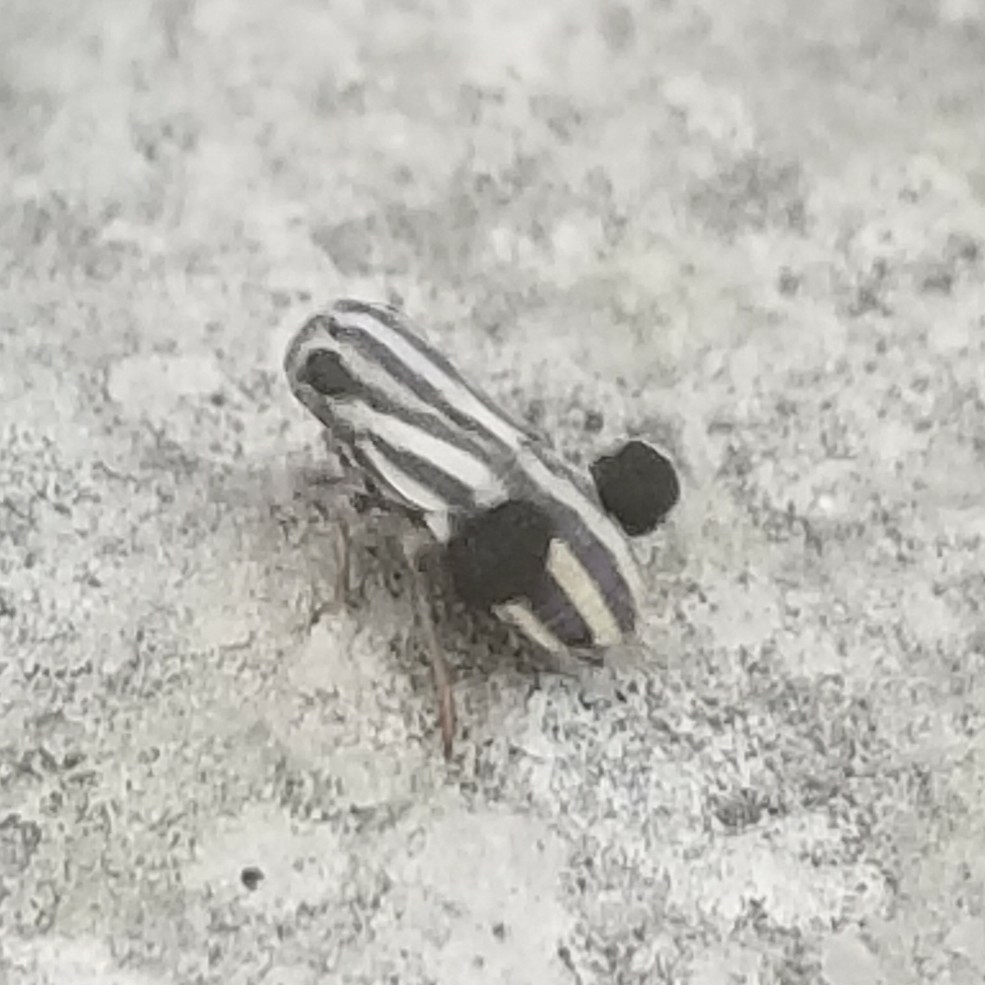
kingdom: Animalia
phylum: Arthropoda
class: Insecta
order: Hemiptera
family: Caliscelidae
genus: Aphelonema
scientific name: Aphelonema melichari
